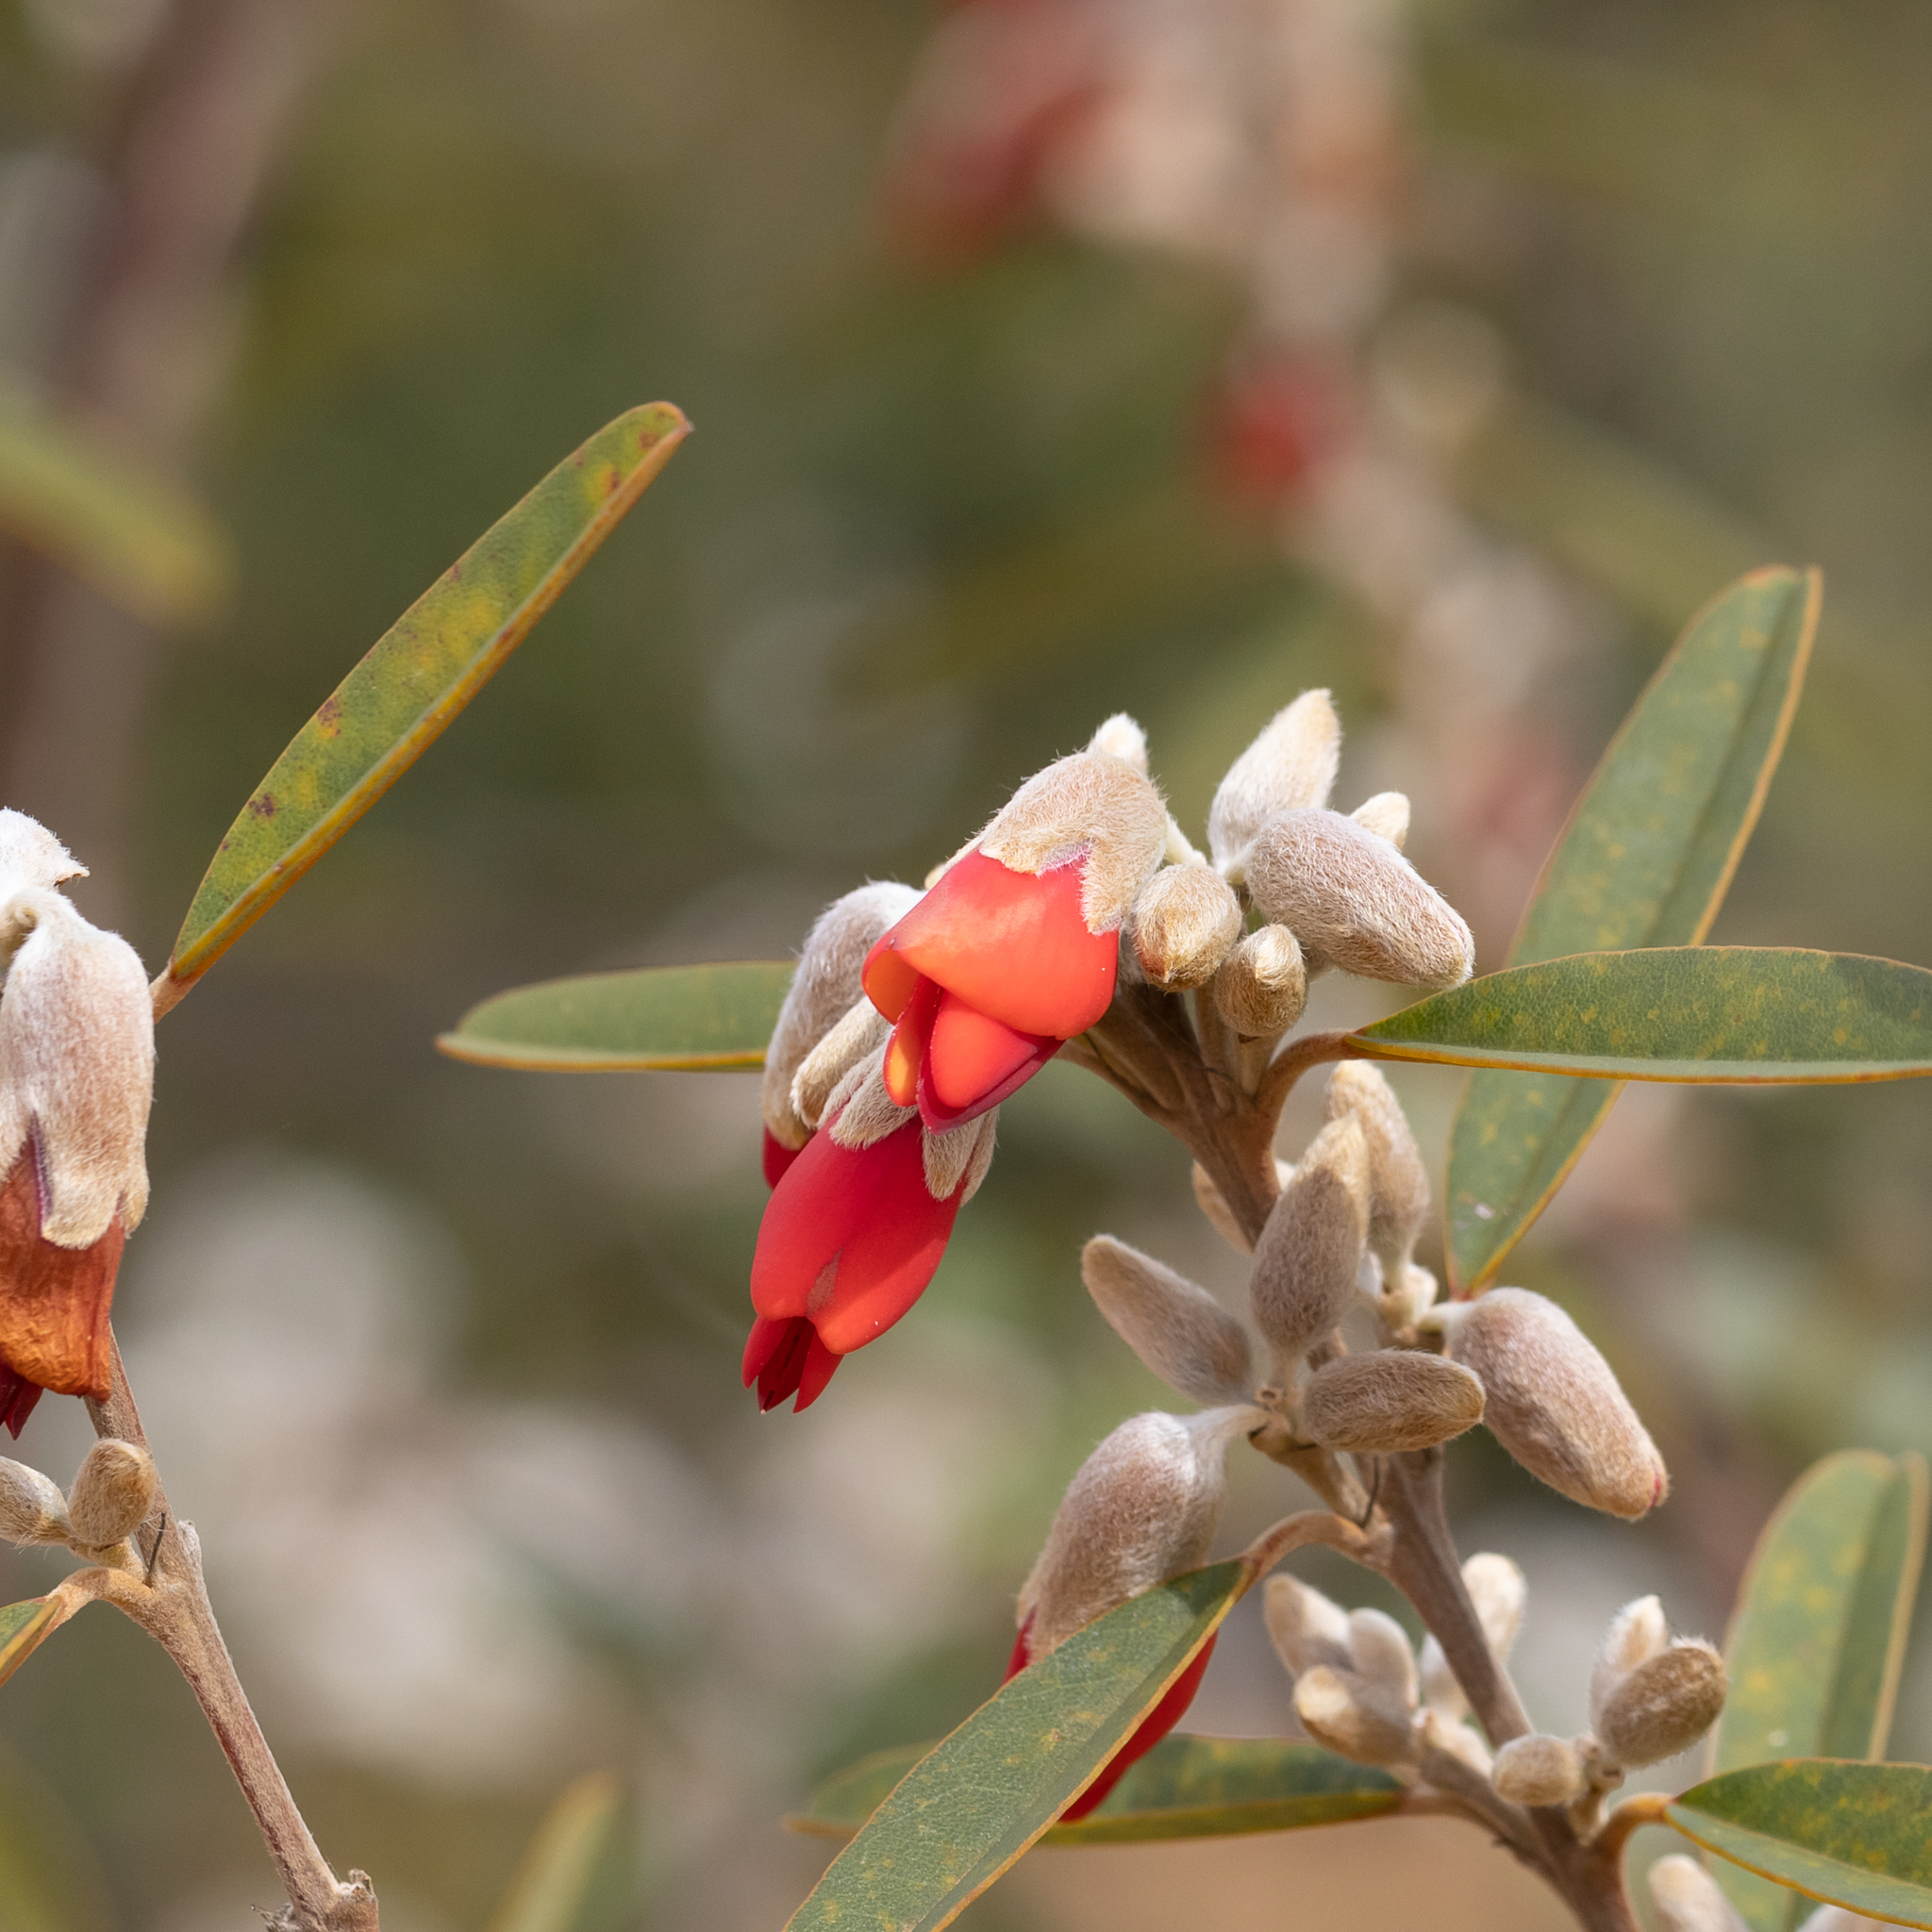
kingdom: Plantae
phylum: Tracheophyta
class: Magnoliopsida
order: Fabales
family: Fabaceae
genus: Gastrolobium
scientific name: Gastrolobium rubrum
